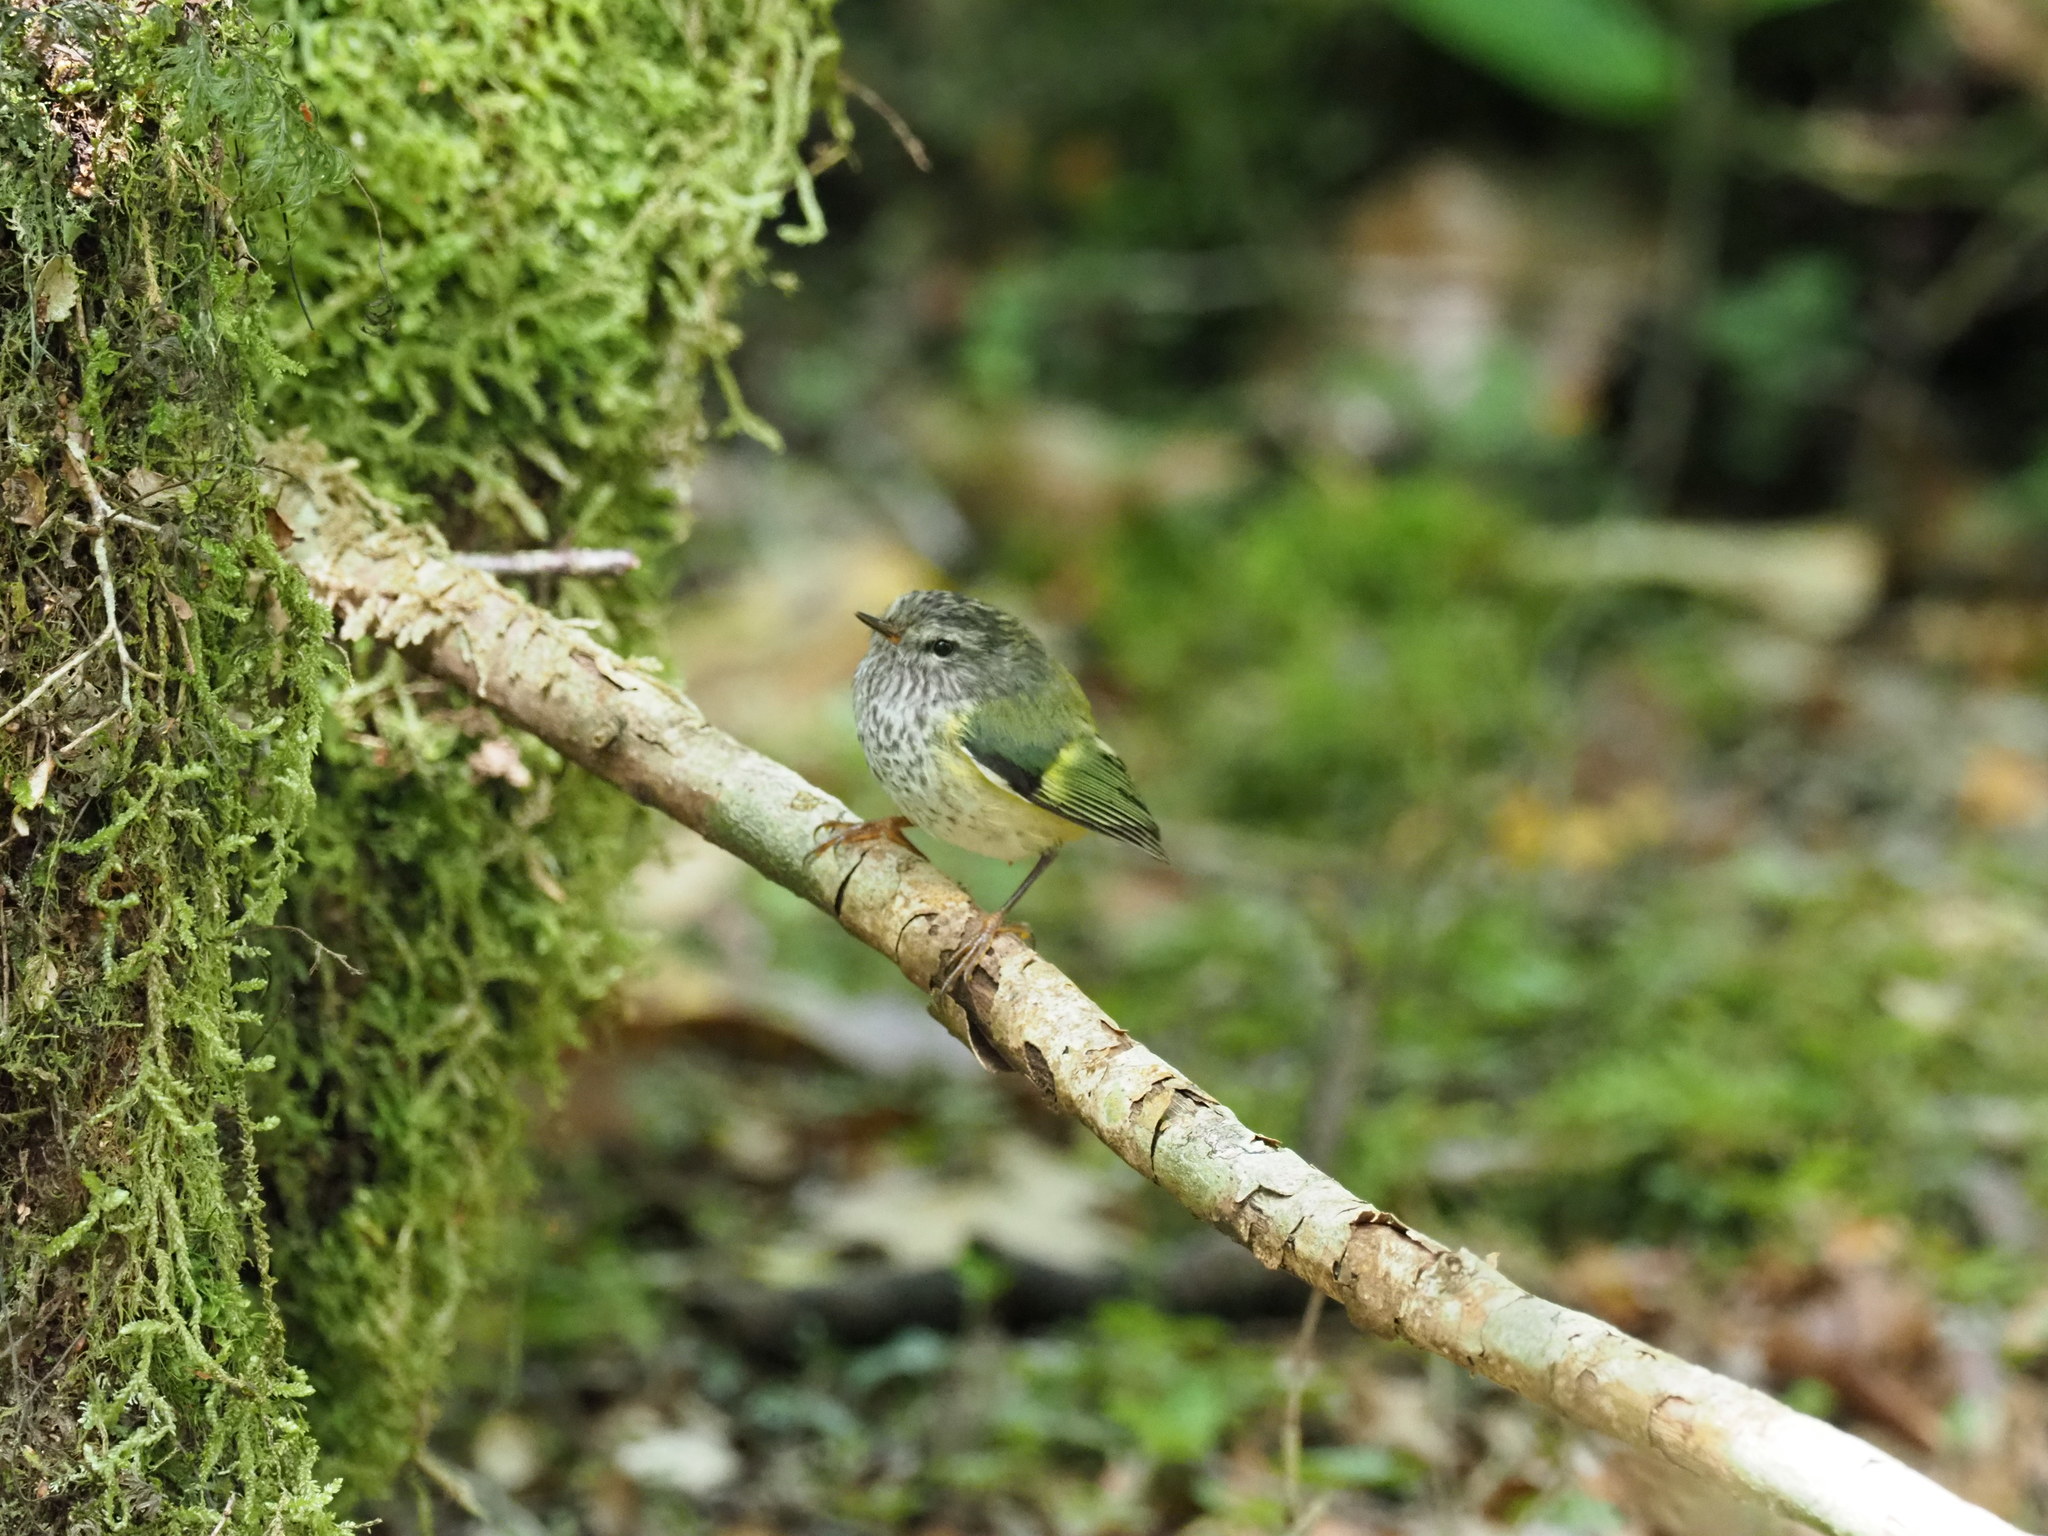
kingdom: Animalia
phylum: Chordata
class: Aves
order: Passeriformes
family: Acanthisittidae
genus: Acanthisitta
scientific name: Acanthisitta chloris
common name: Rifleman
